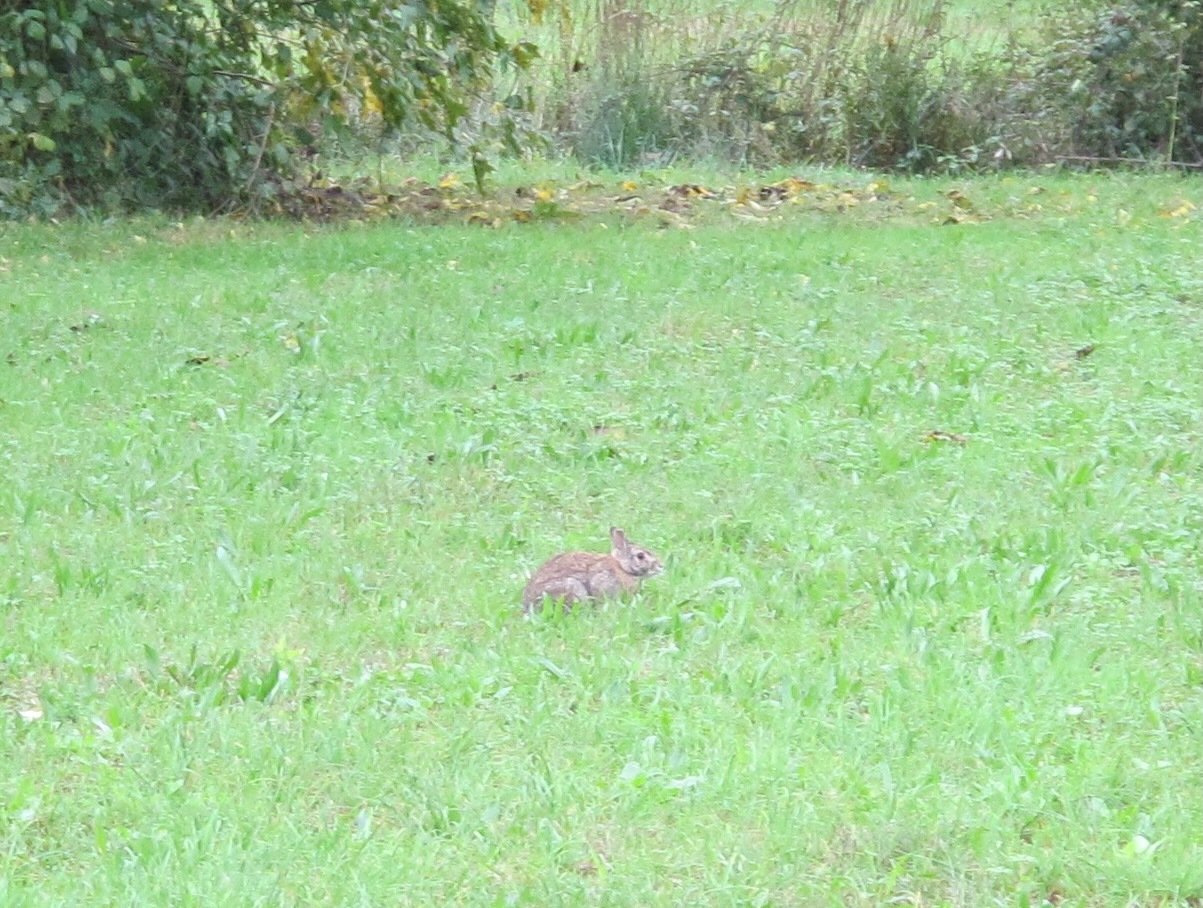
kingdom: Animalia
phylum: Chordata
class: Mammalia
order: Lagomorpha
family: Leporidae
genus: Sylvilagus
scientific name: Sylvilagus floridanus
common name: Eastern cottontail
